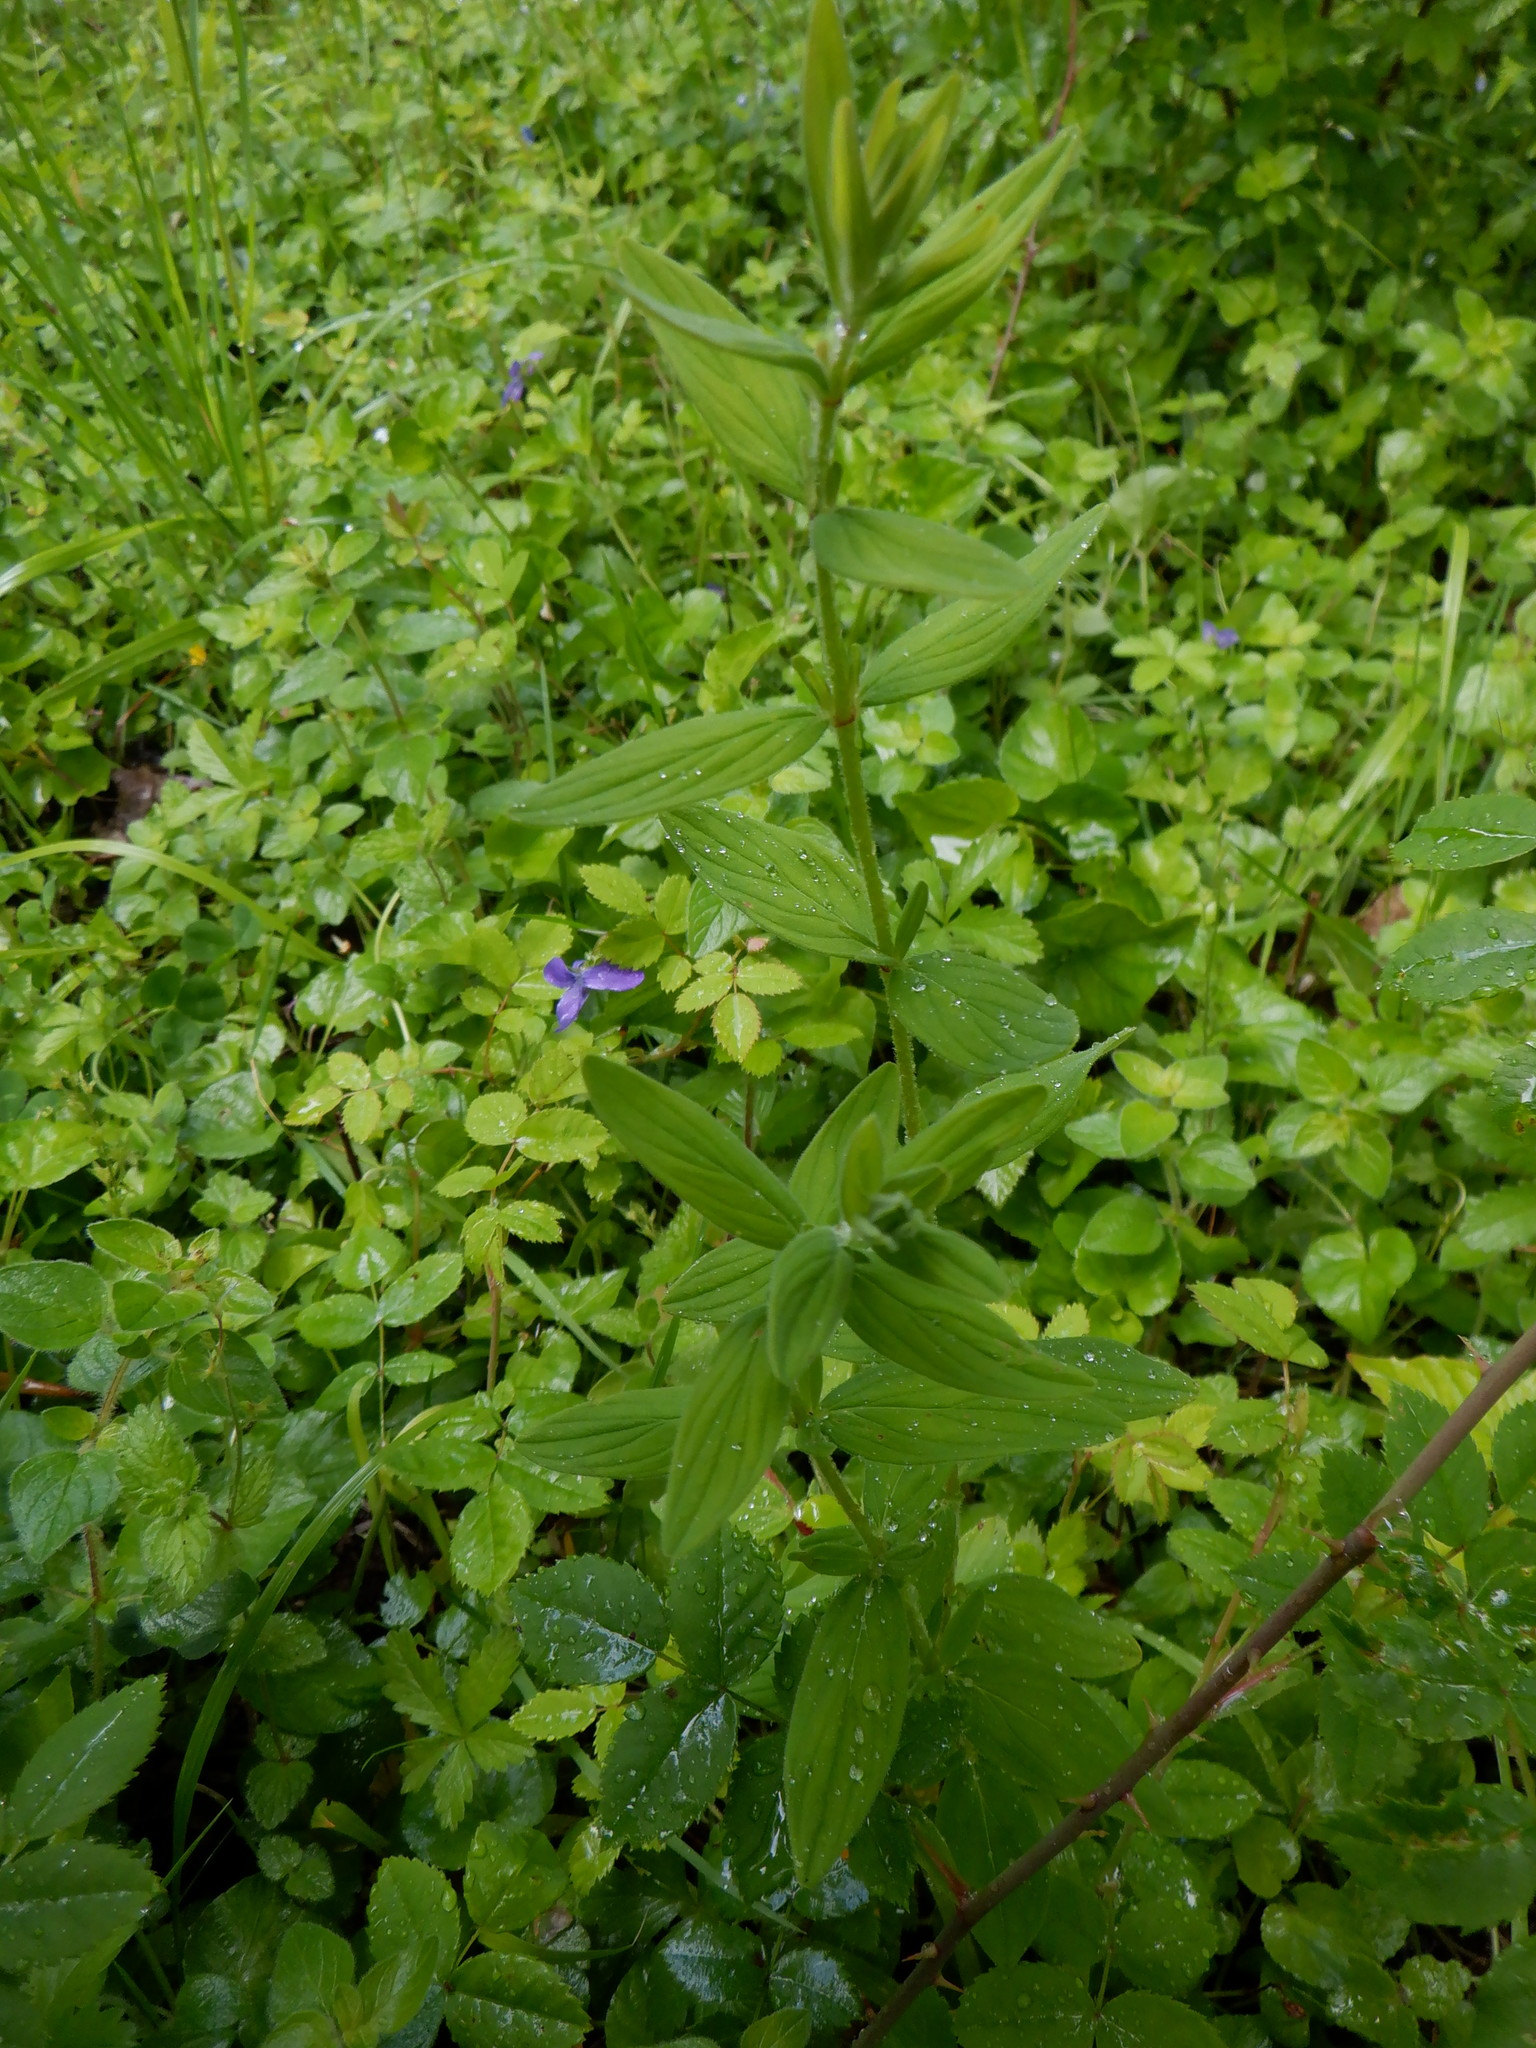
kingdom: Plantae
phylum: Tracheophyta
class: Magnoliopsida
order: Malpighiales
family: Hypericaceae
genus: Hypericum
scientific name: Hypericum hirsutum
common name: Hairy st. john's-wort
